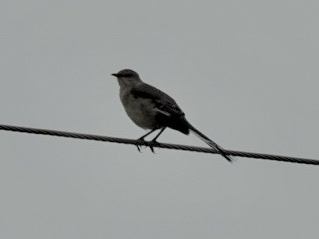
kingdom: Animalia
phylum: Chordata
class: Aves
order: Passeriformes
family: Mimidae
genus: Mimus
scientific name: Mimus polyglottos
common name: Northern mockingbird
